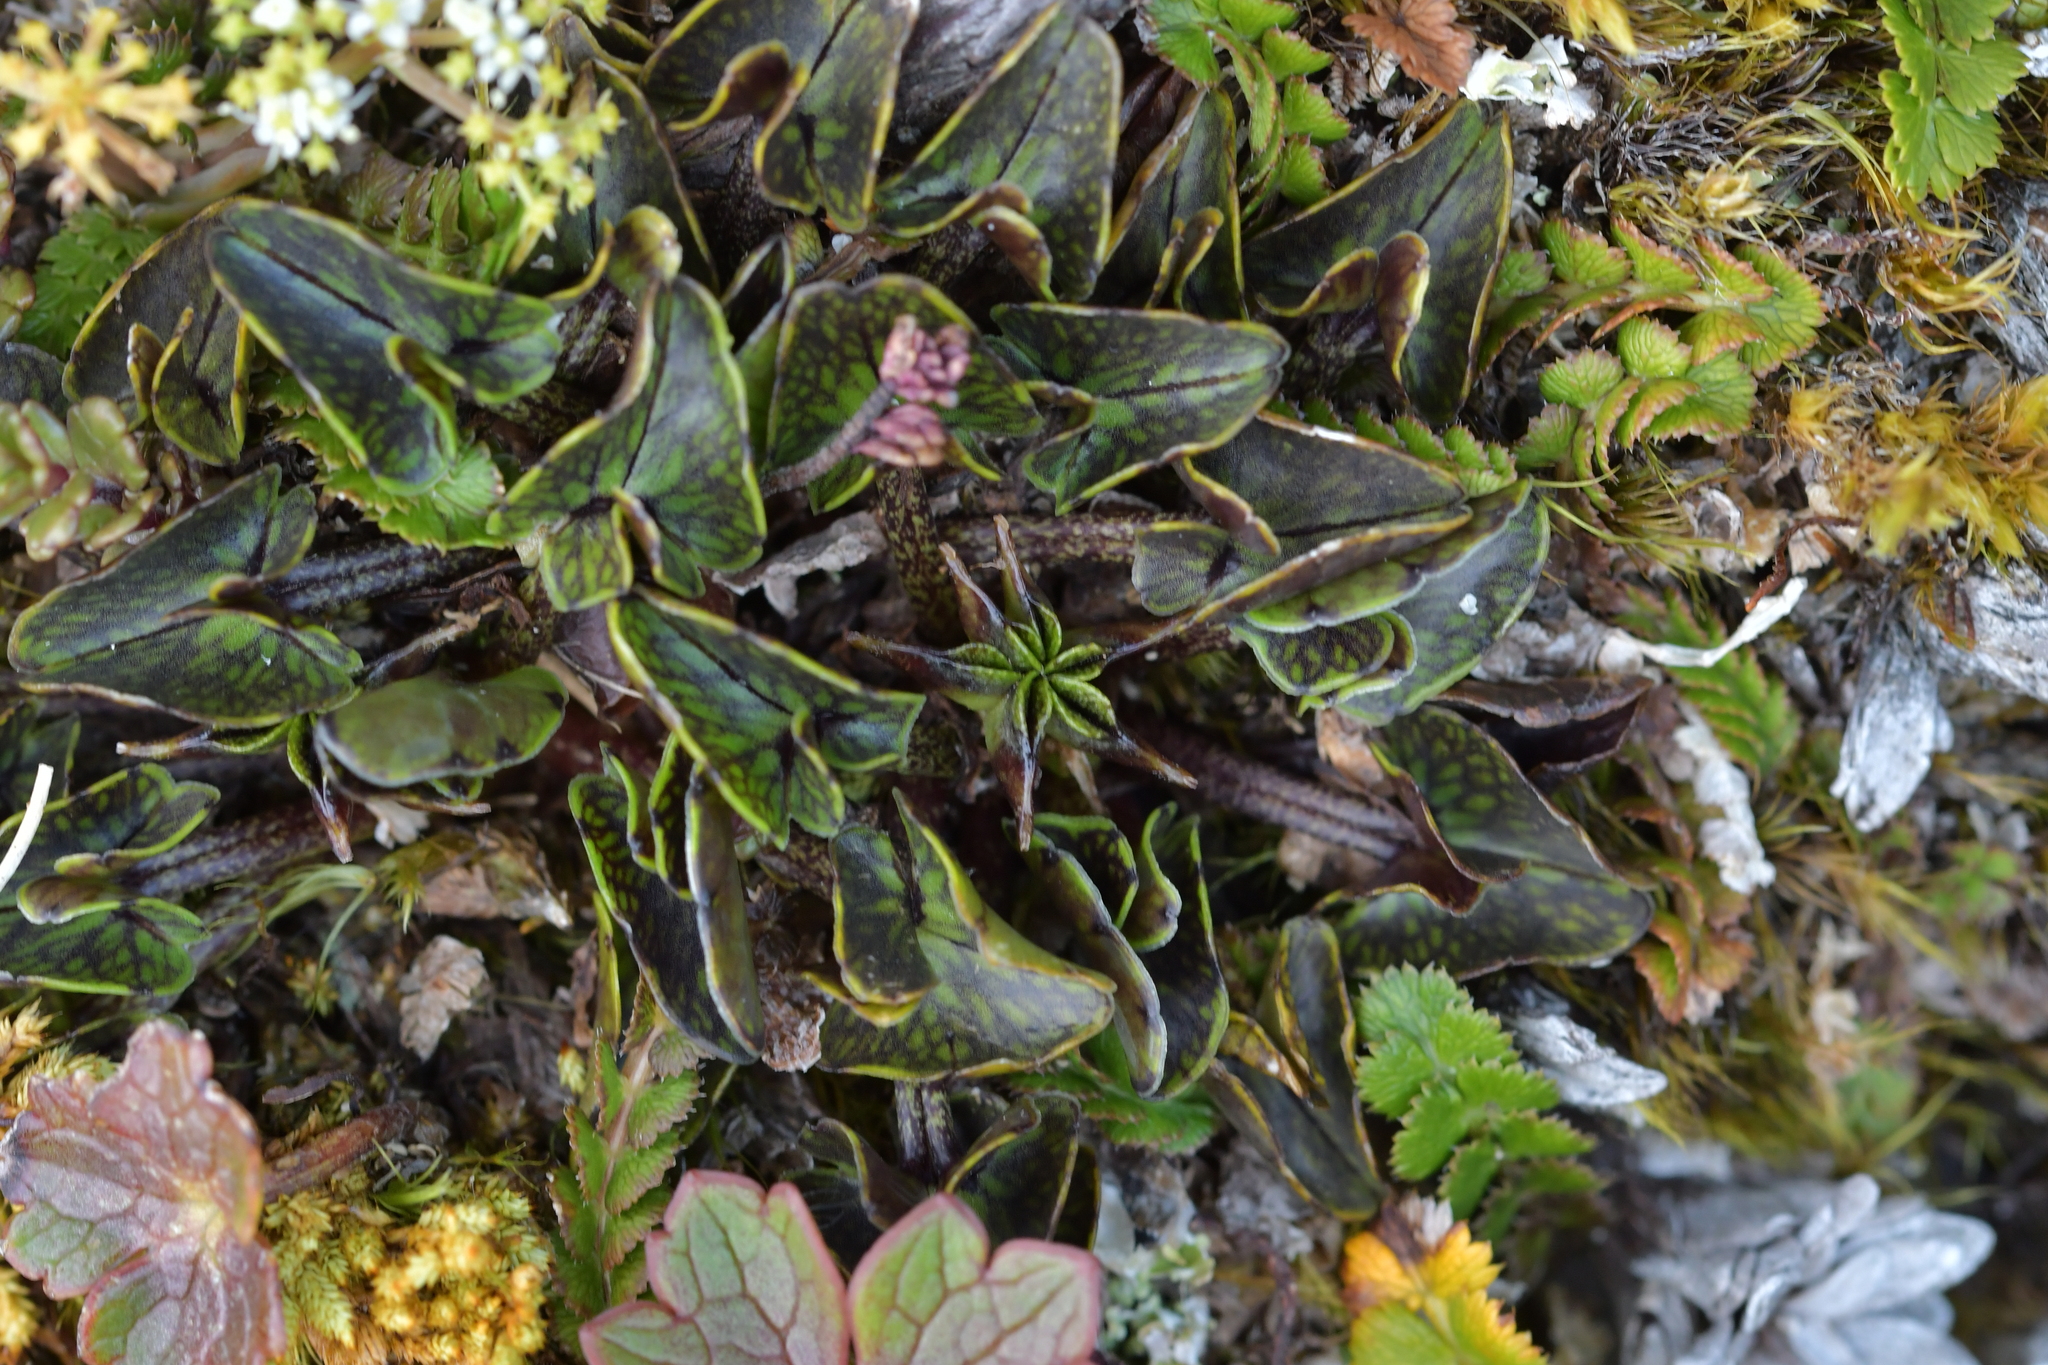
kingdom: Plantae
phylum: Tracheophyta
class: Magnoliopsida
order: Ranunculales
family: Ranunculaceae
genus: Caltha
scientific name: Caltha novae-zelandiae
